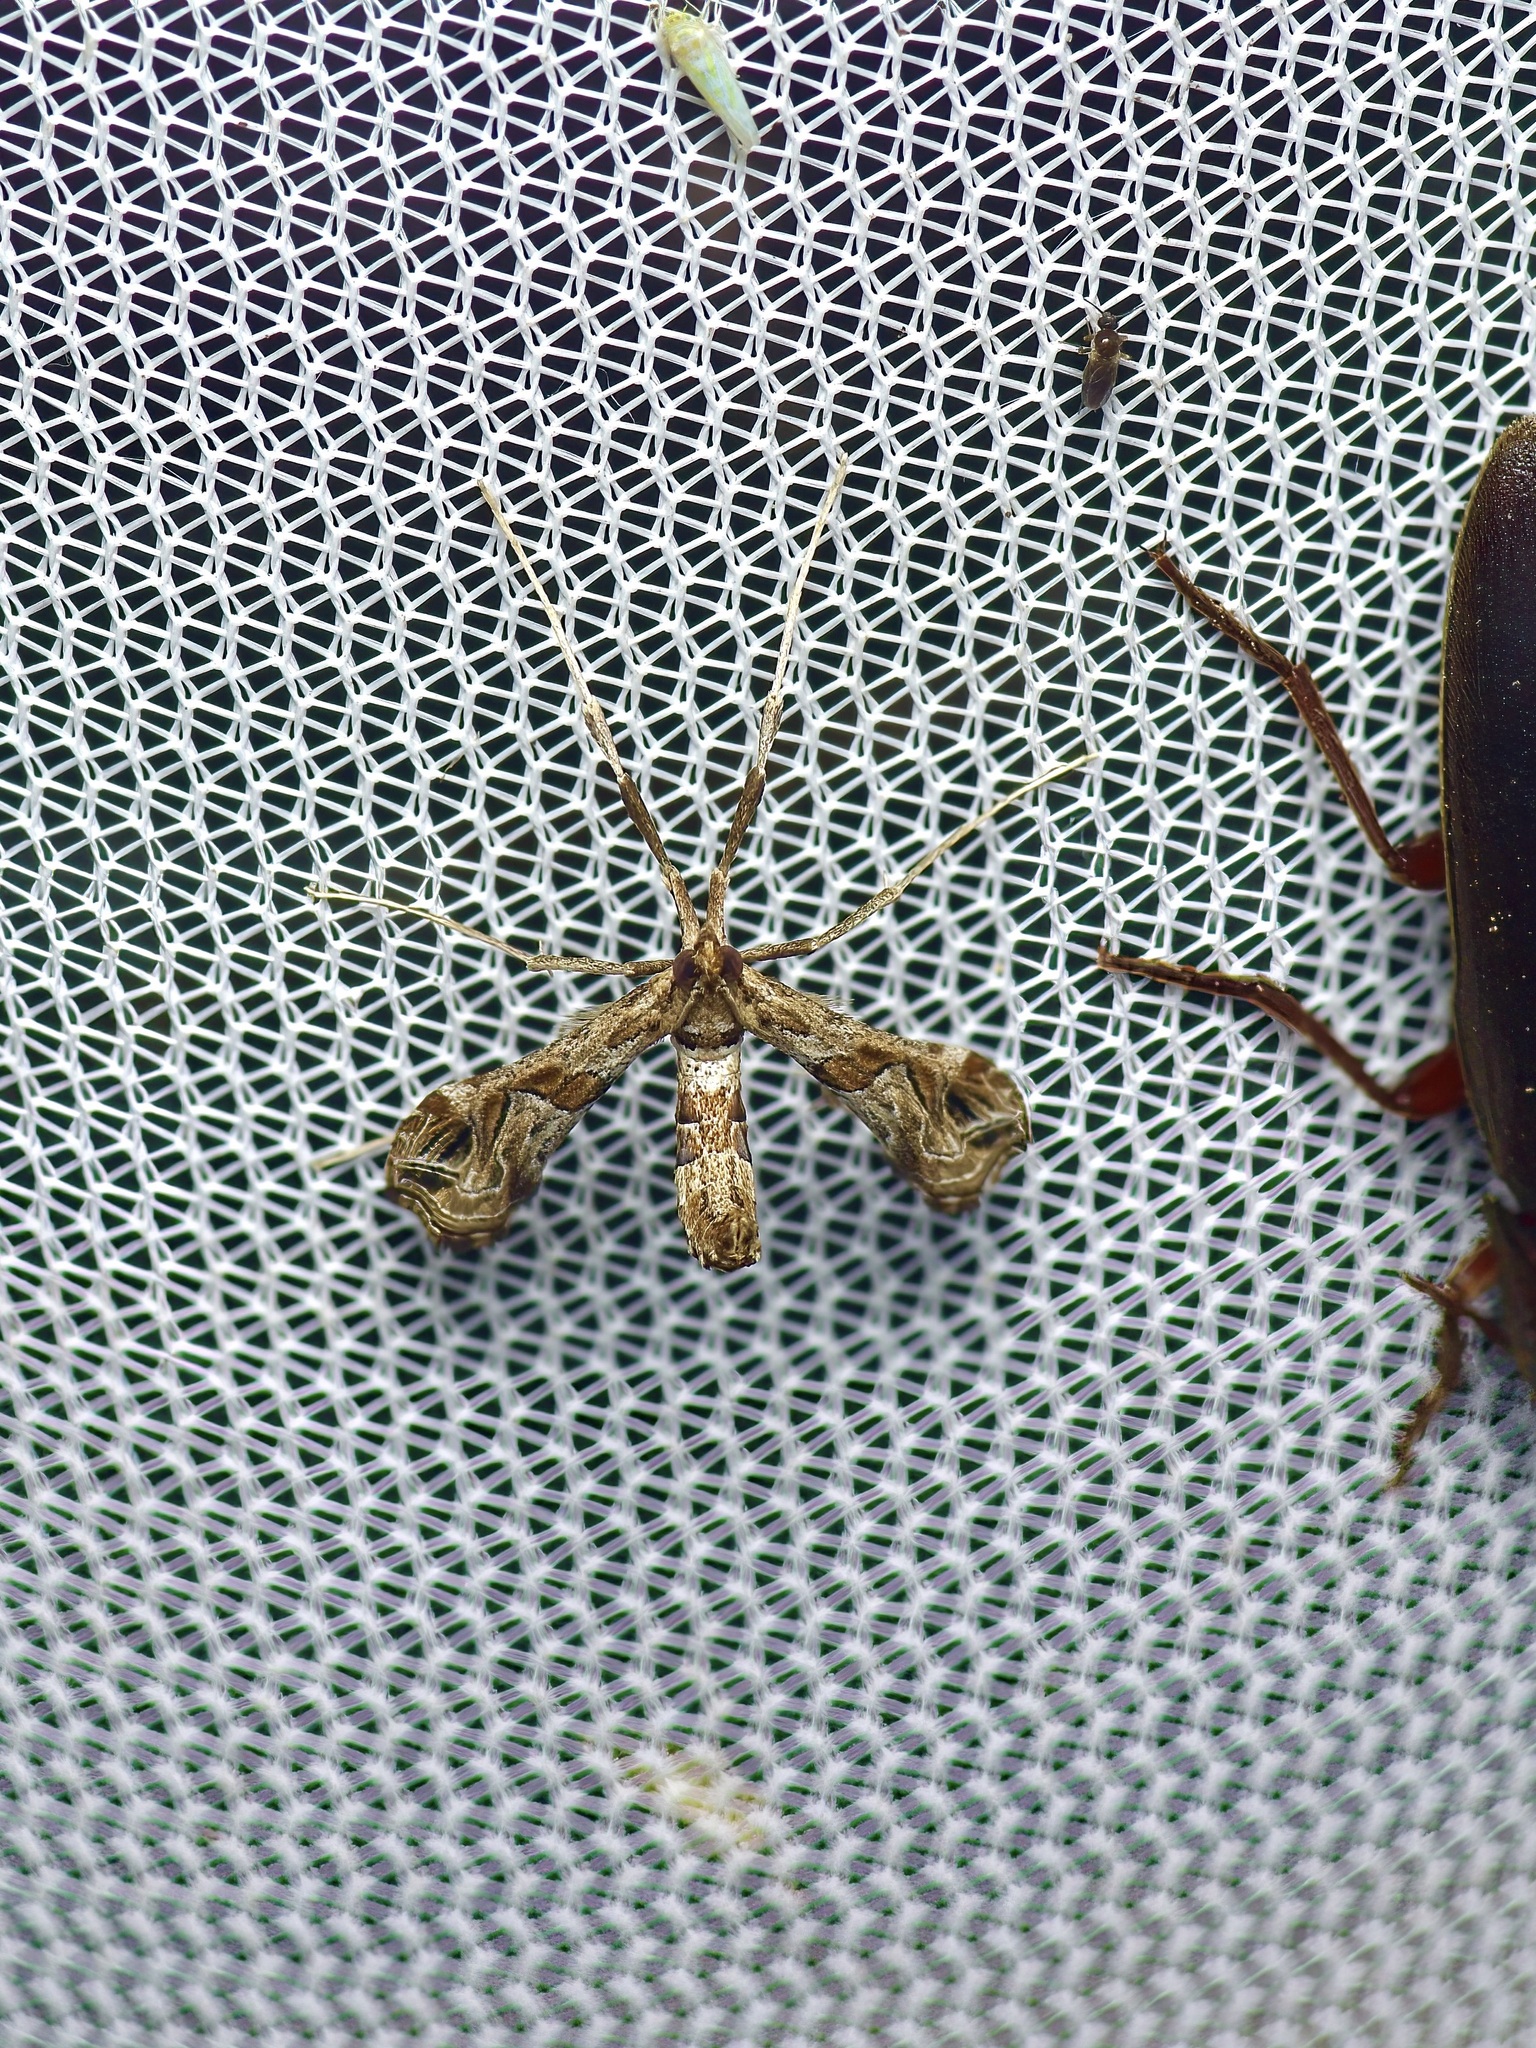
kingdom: Animalia
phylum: Arthropoda
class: Insecta
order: Lepidoptera
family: Crambidae
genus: Lineodes
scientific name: Lineodes interrupta
